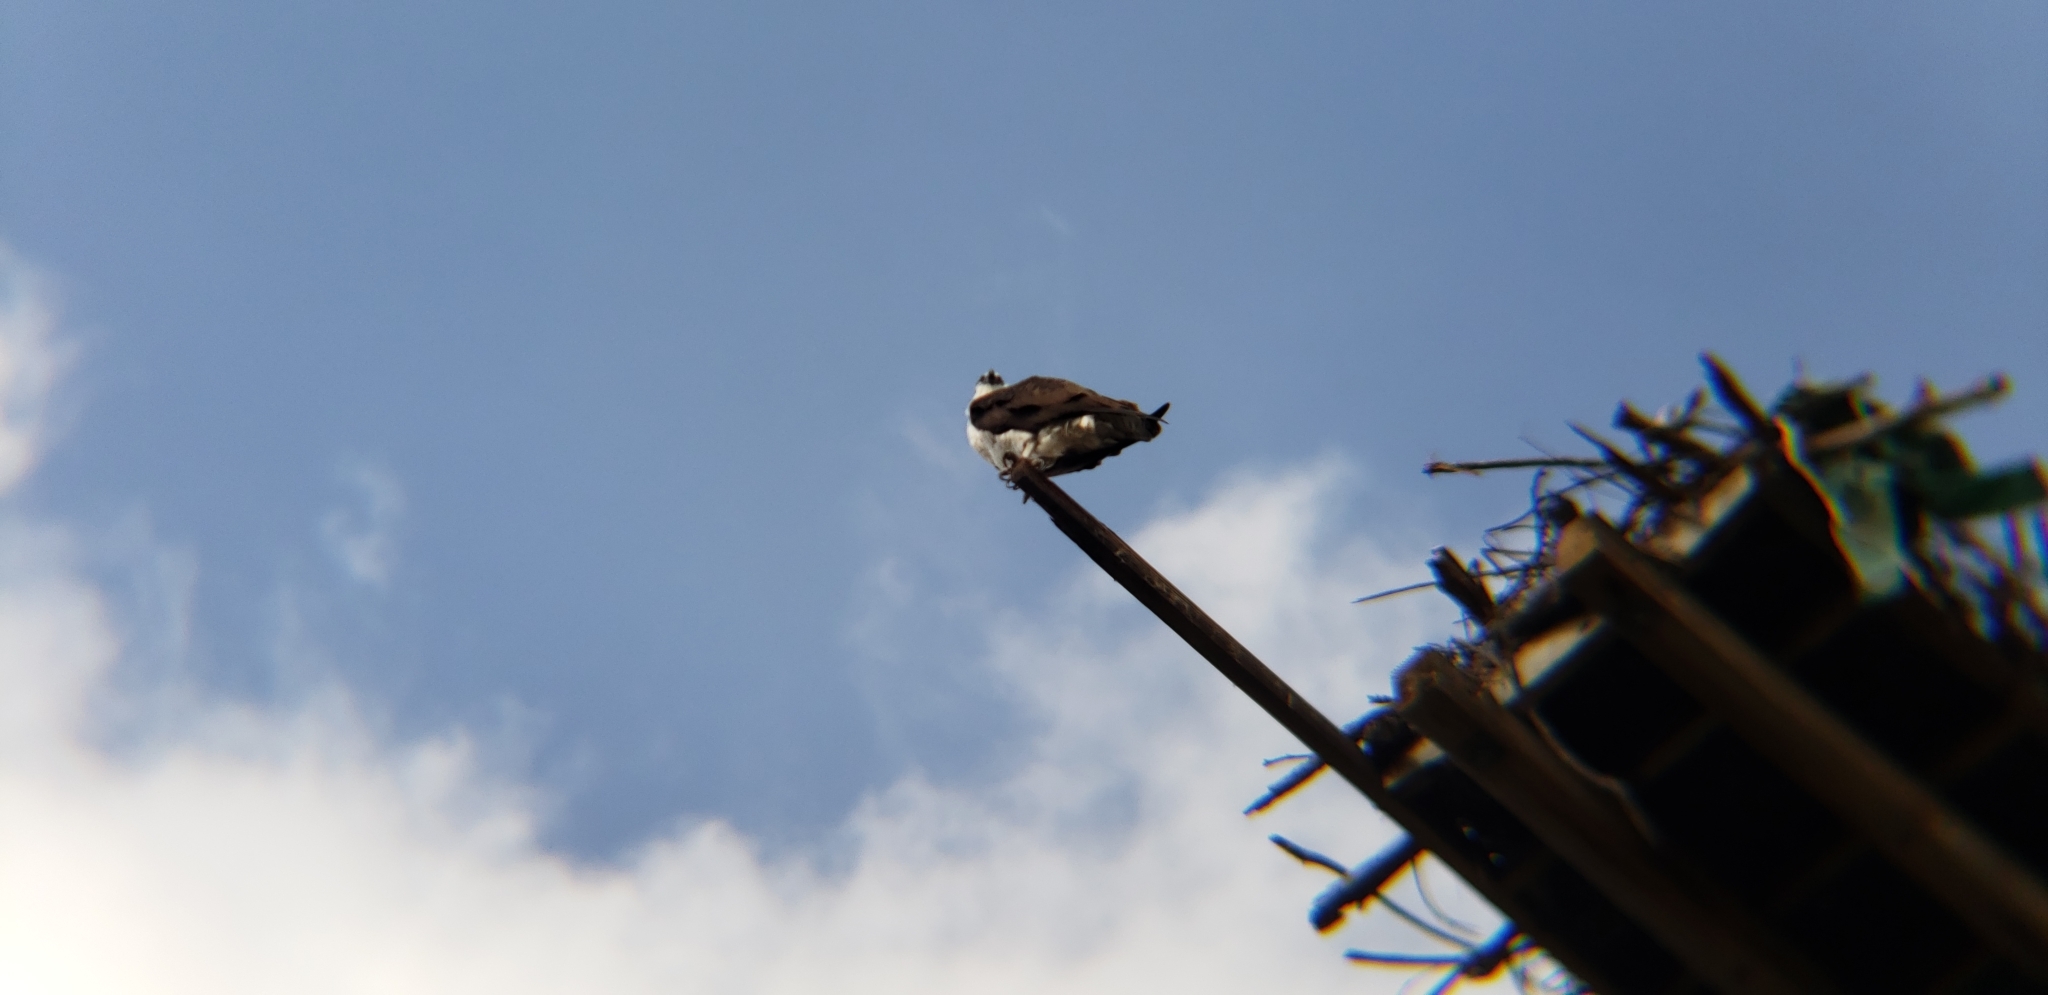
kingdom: Animalia
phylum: Chordata
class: Aves
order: Accipitriformes
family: Pandionidae
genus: Pandion
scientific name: Pandion haliaetus
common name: Osprey
